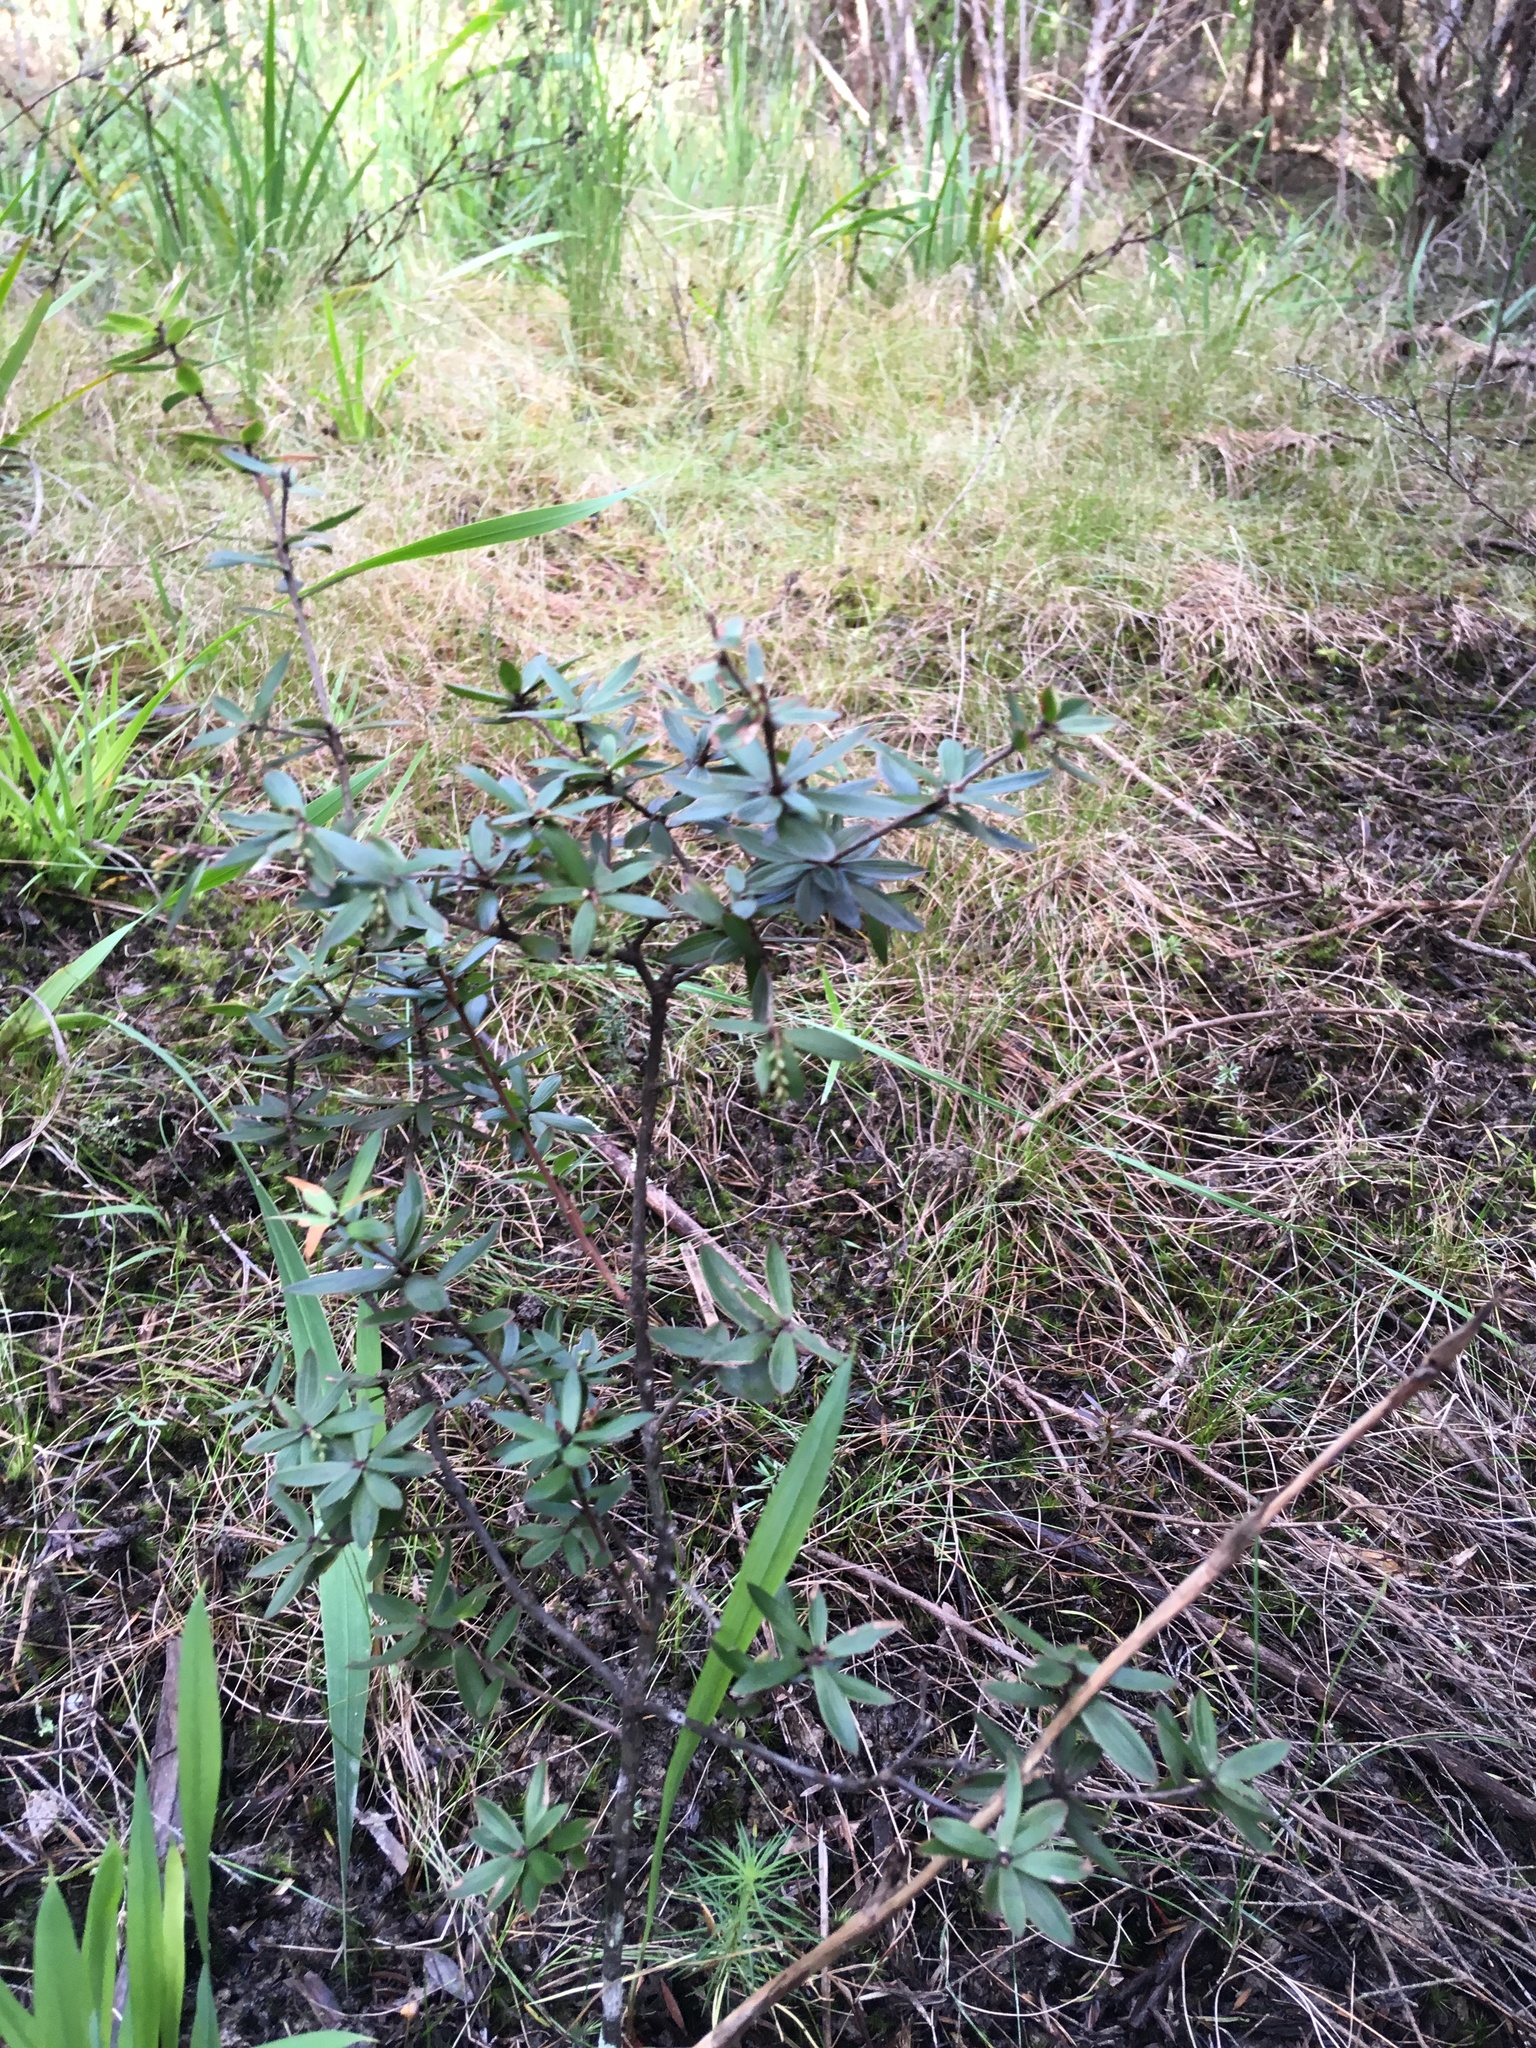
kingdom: Plantae
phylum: Tracheophyta
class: Magnoliopsida
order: Ericales
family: Ericaceae
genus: Leucopogon
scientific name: Leucopogon fasciculatus
